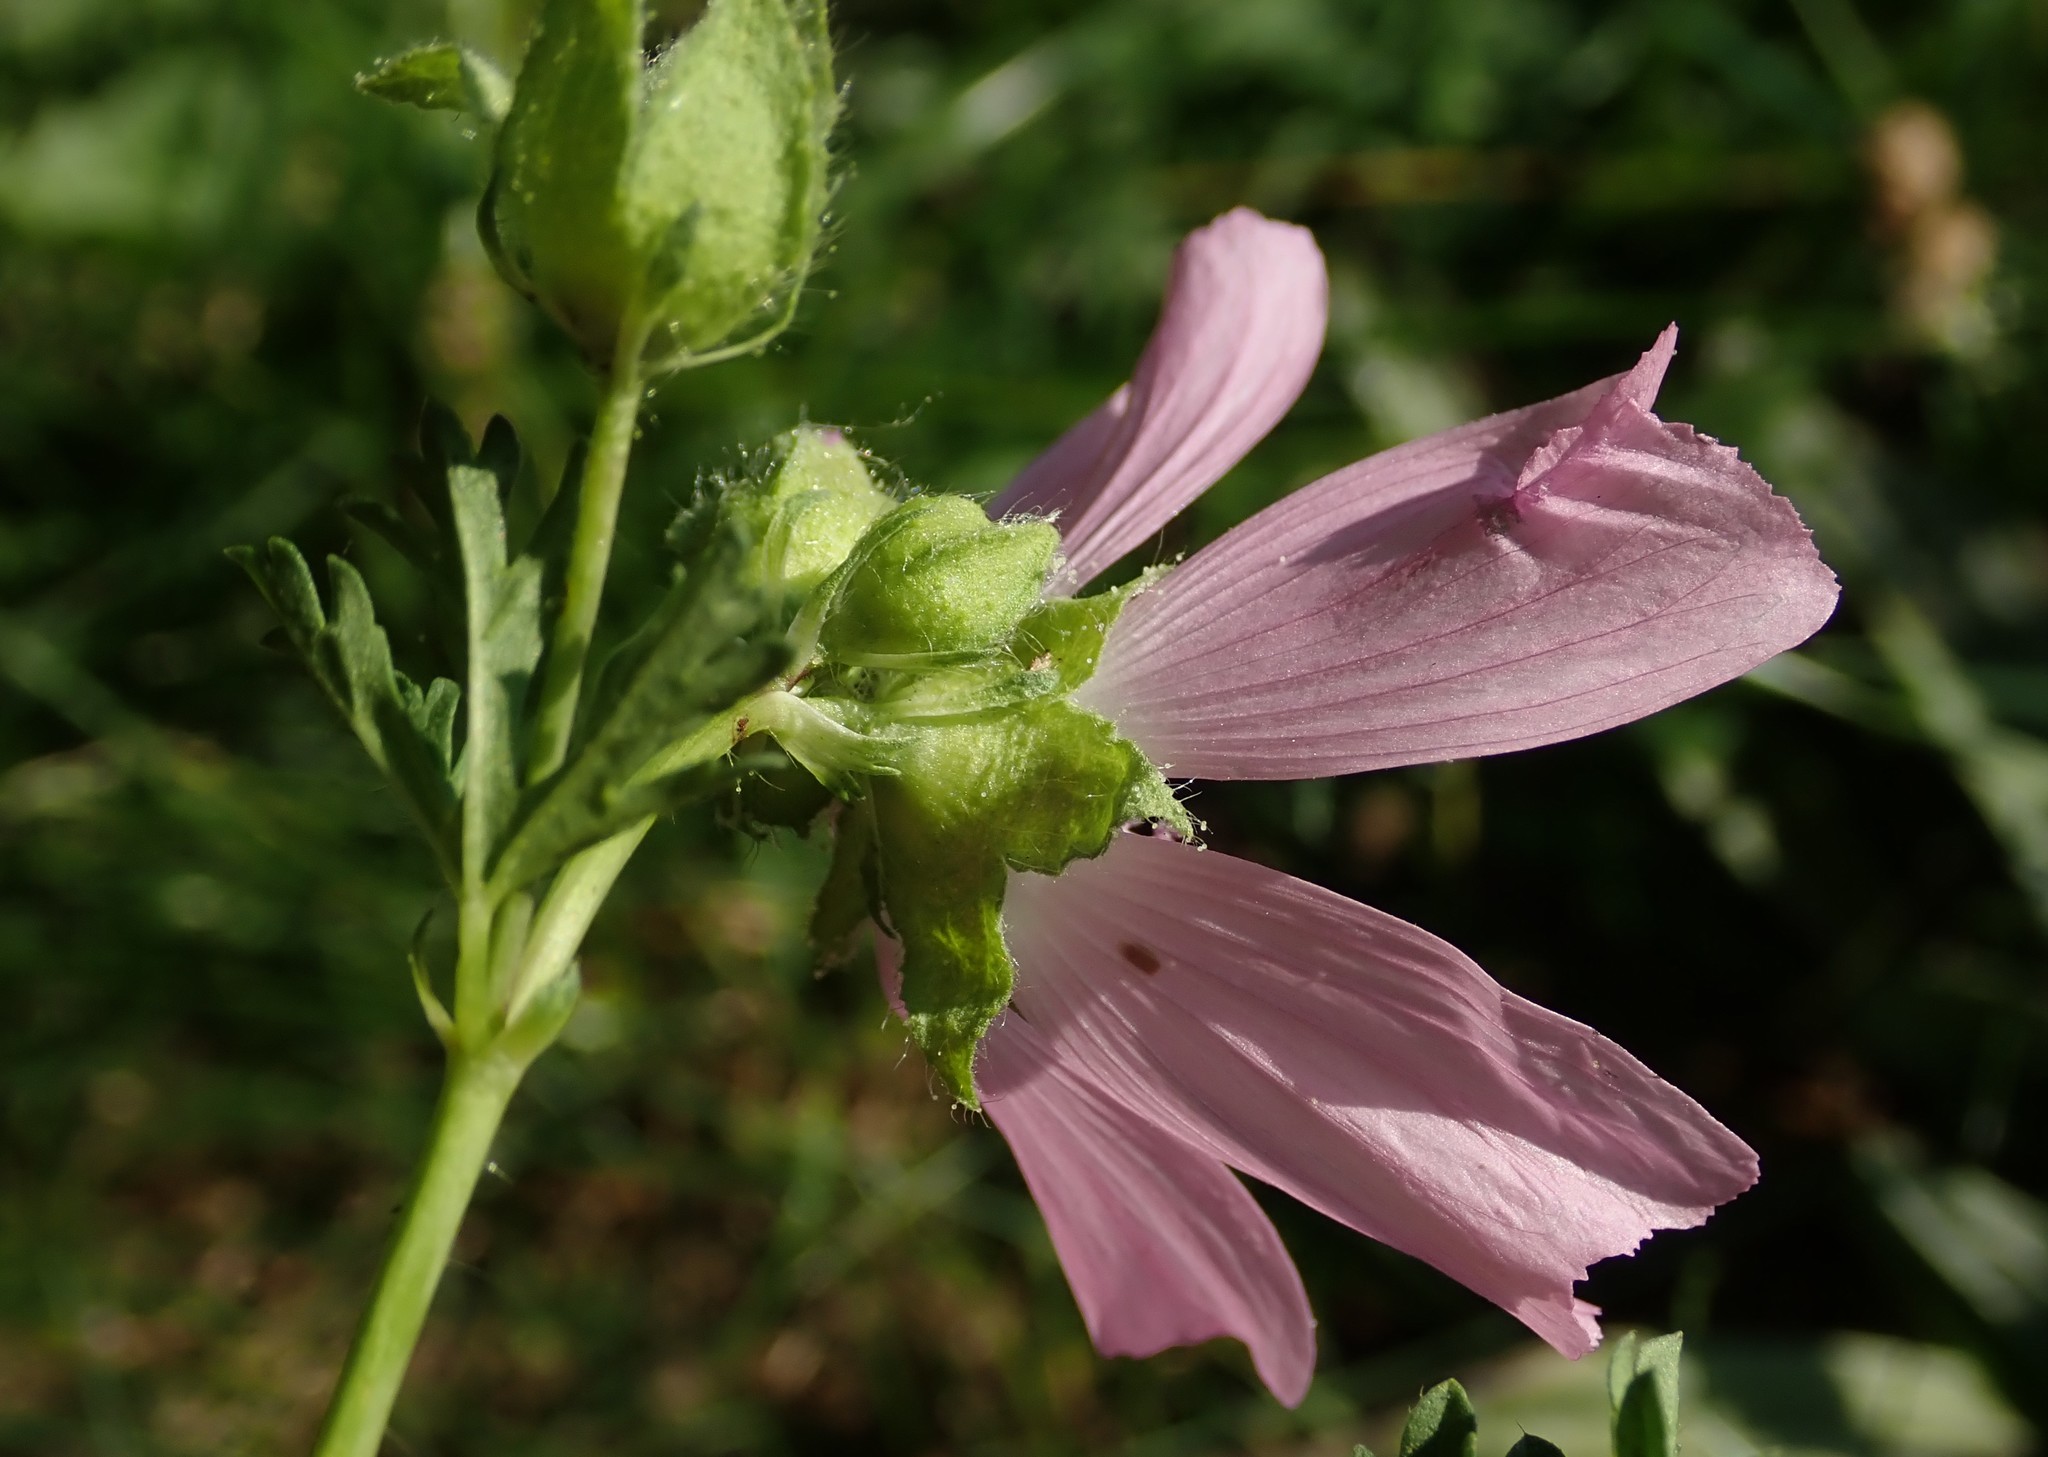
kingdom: Plantae
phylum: Tracheophyta
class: Magnoliopsida
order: Malvales
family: Malvaceae
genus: Malva
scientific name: Malva moschata
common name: Musk mallow
